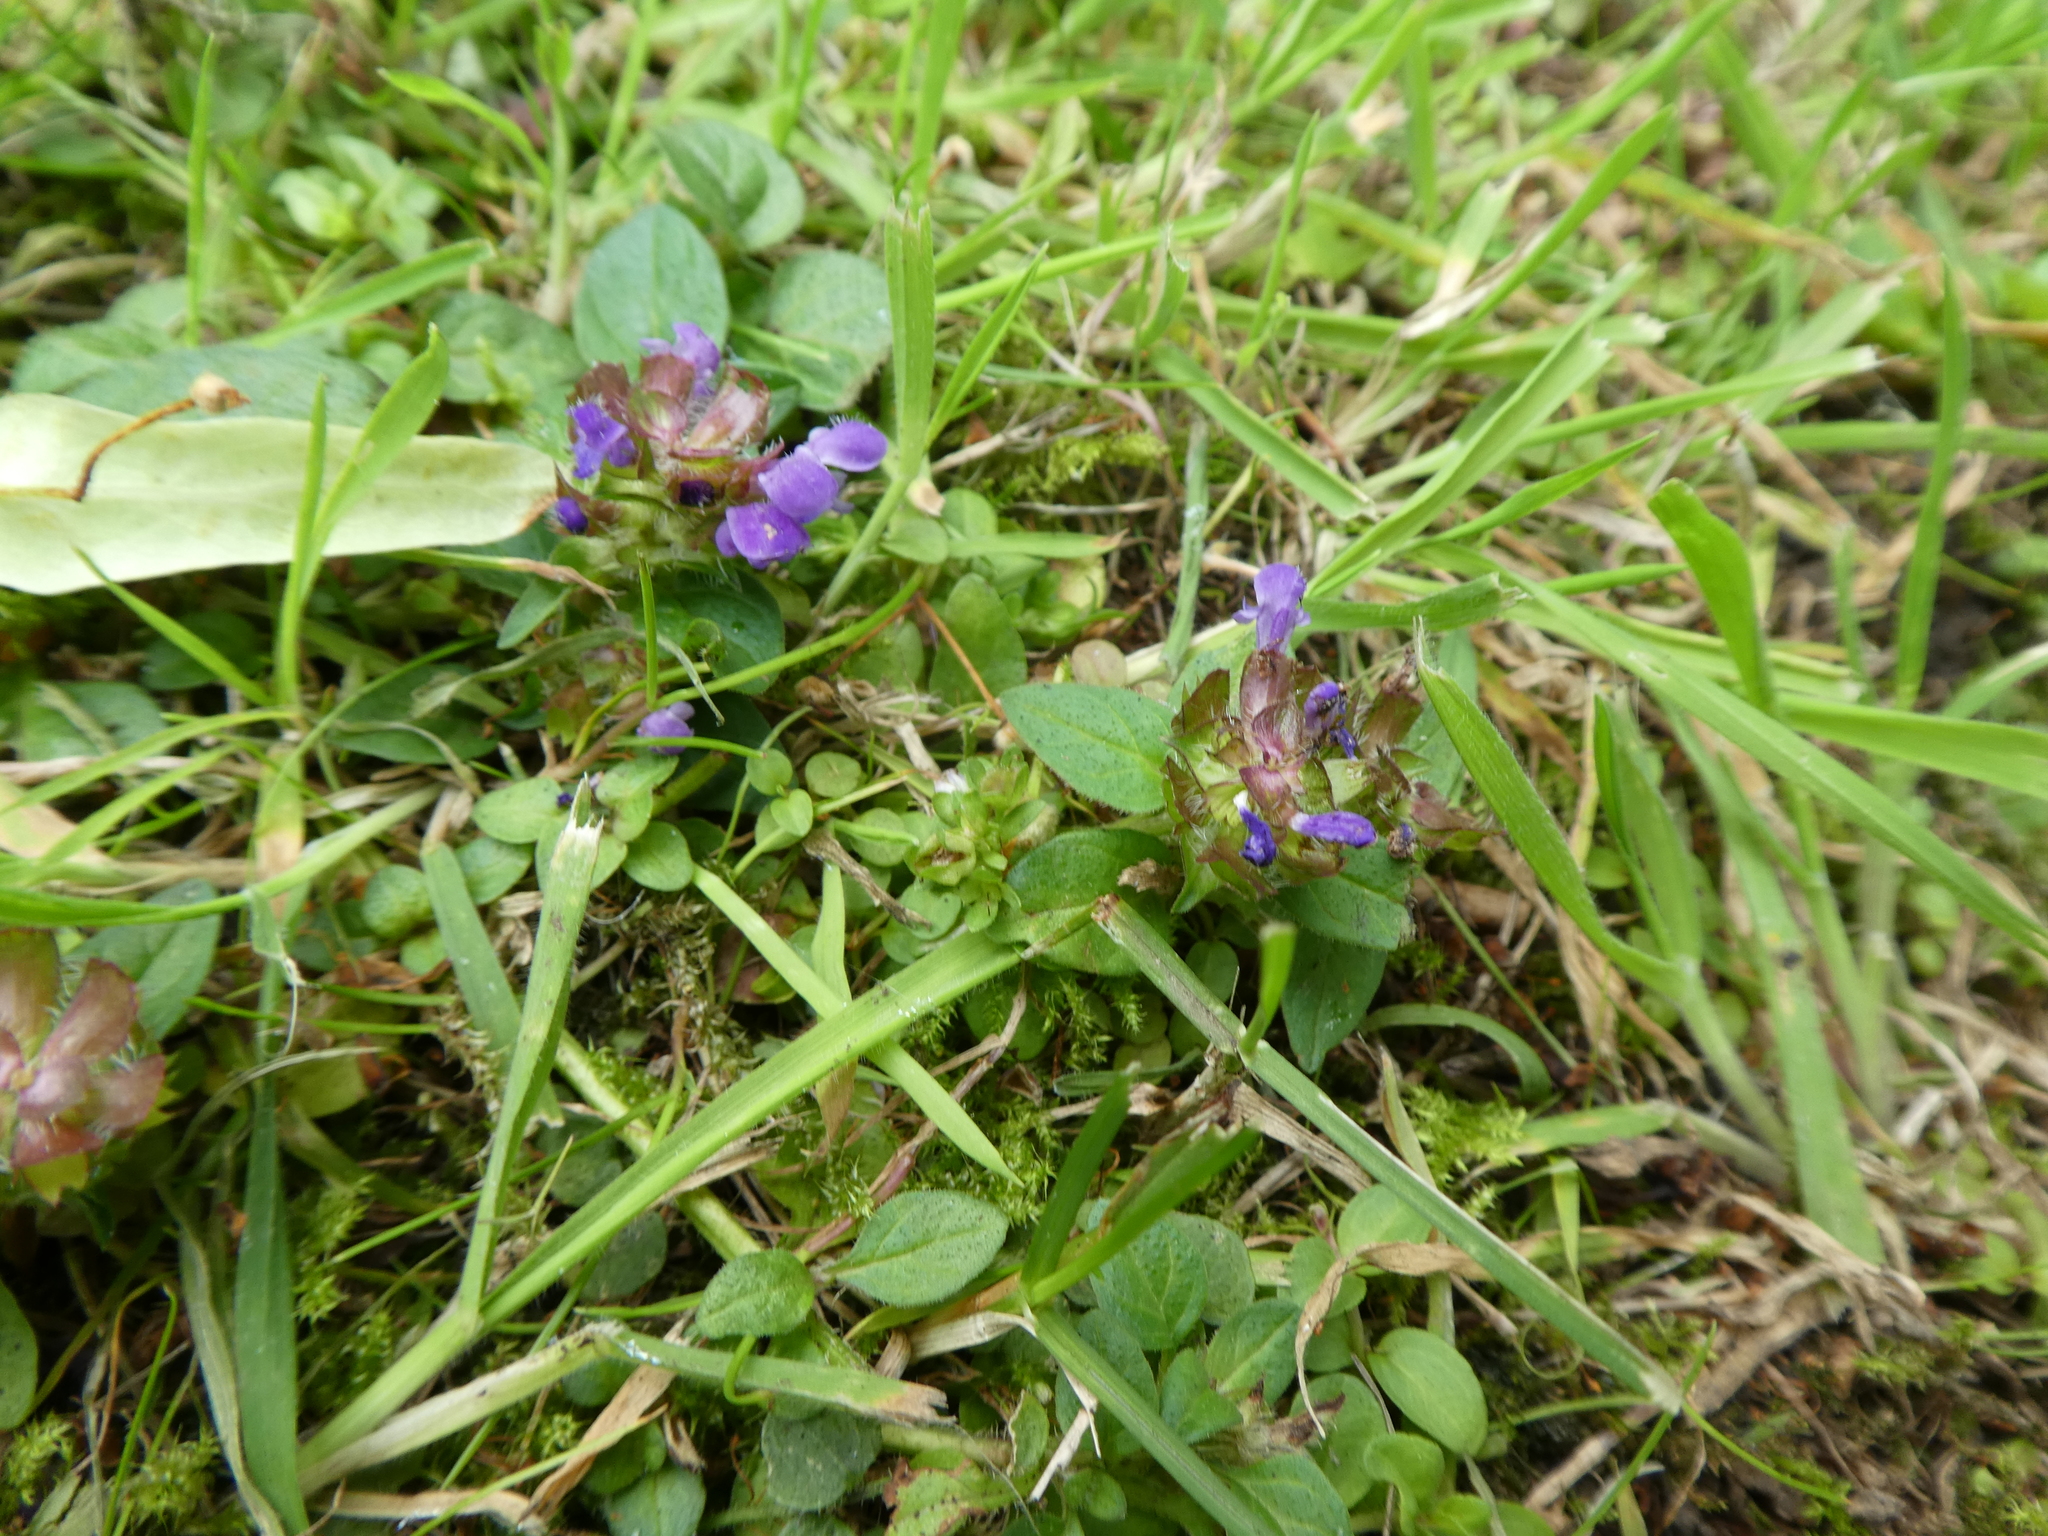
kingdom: Plantae
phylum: Tracheophyta
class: Magnoliopsida
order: Lamiales
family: Lamiaceae
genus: Prunella
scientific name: Prunella vulgaris
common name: Heal-all
